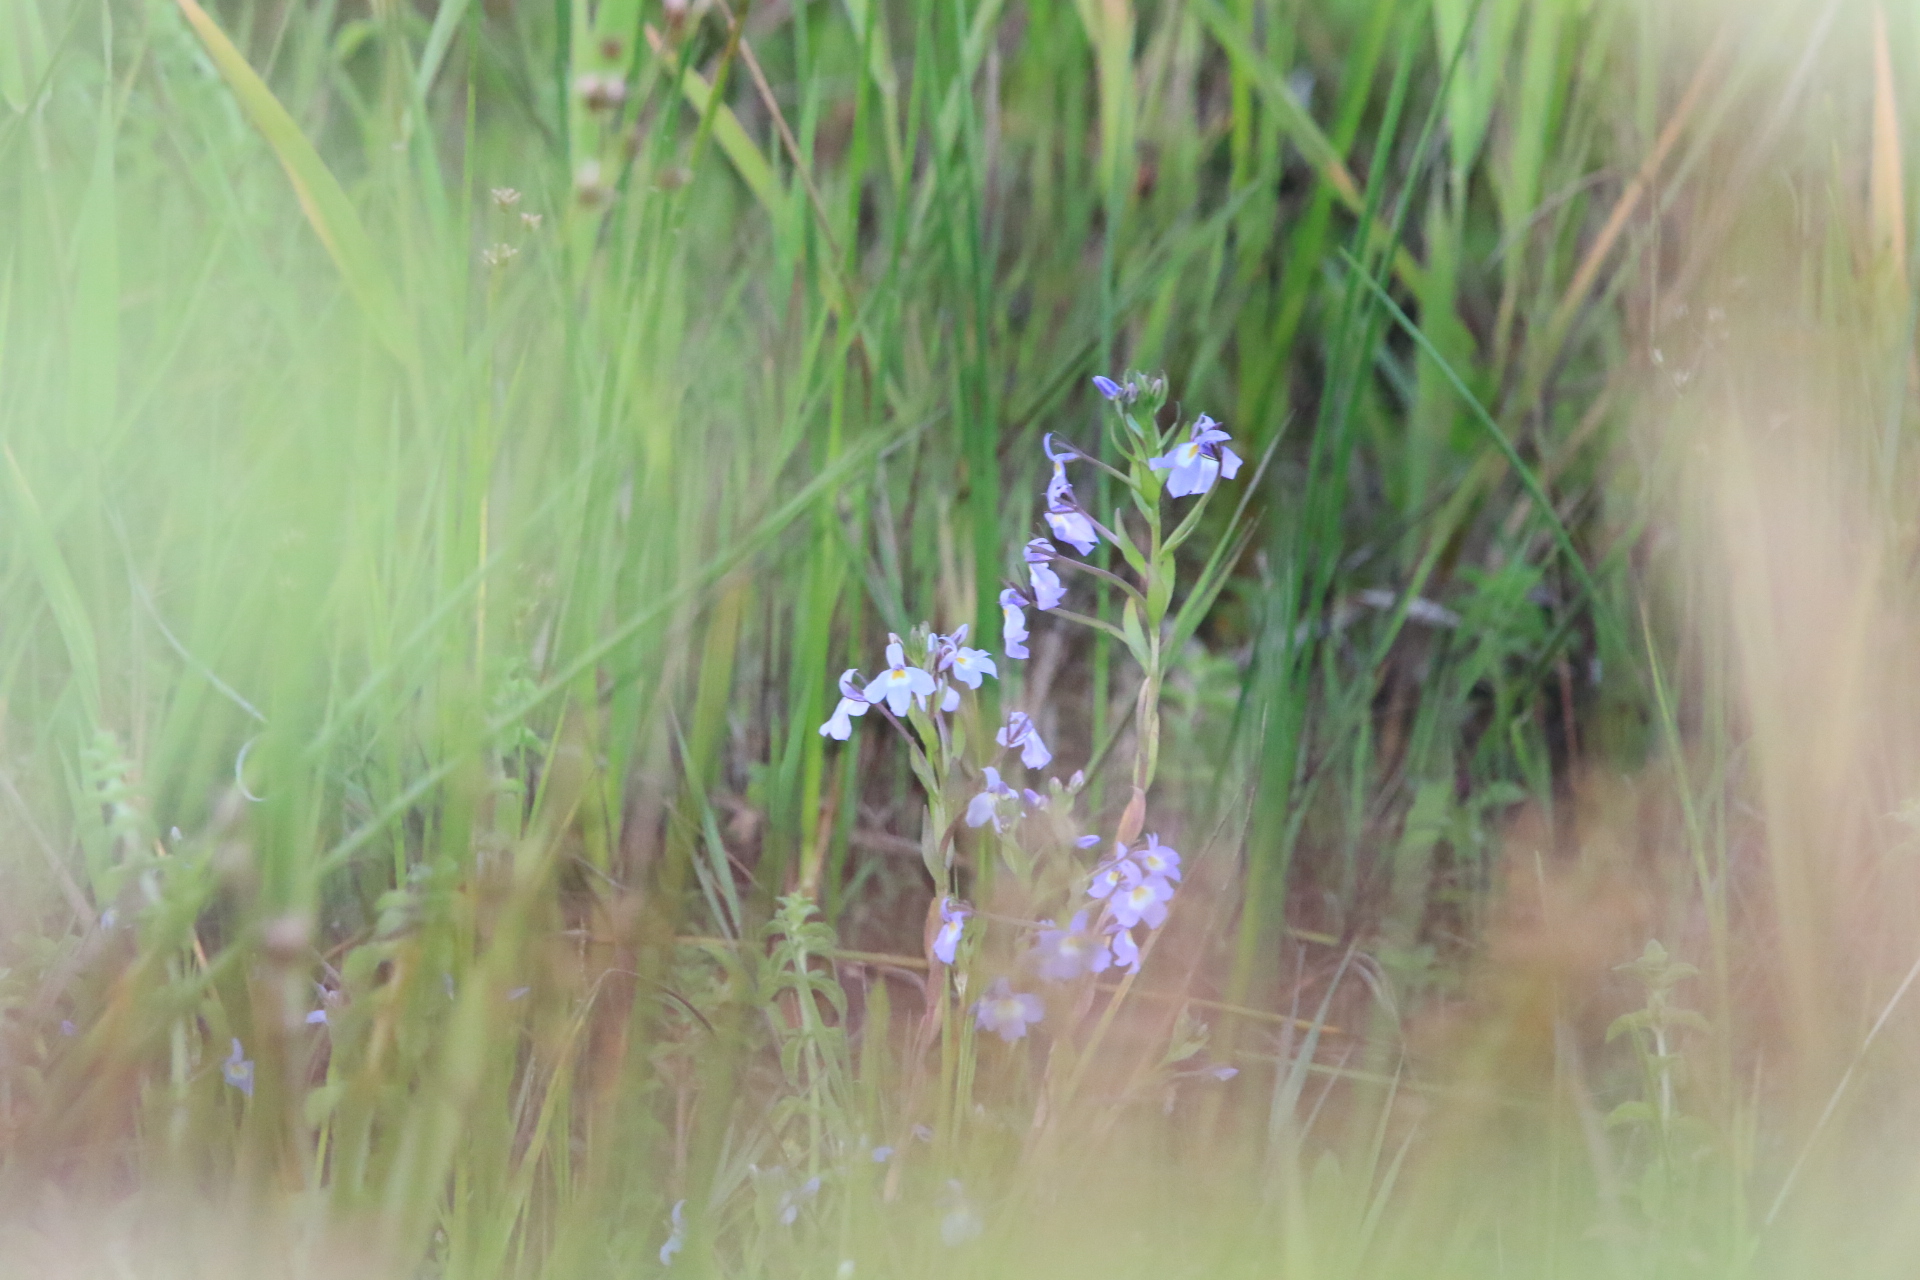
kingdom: Plantae
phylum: Tracheophyta
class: Magnoliopsida
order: Asterales
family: Campanulaceae
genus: Downingia
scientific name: Downingia yina
